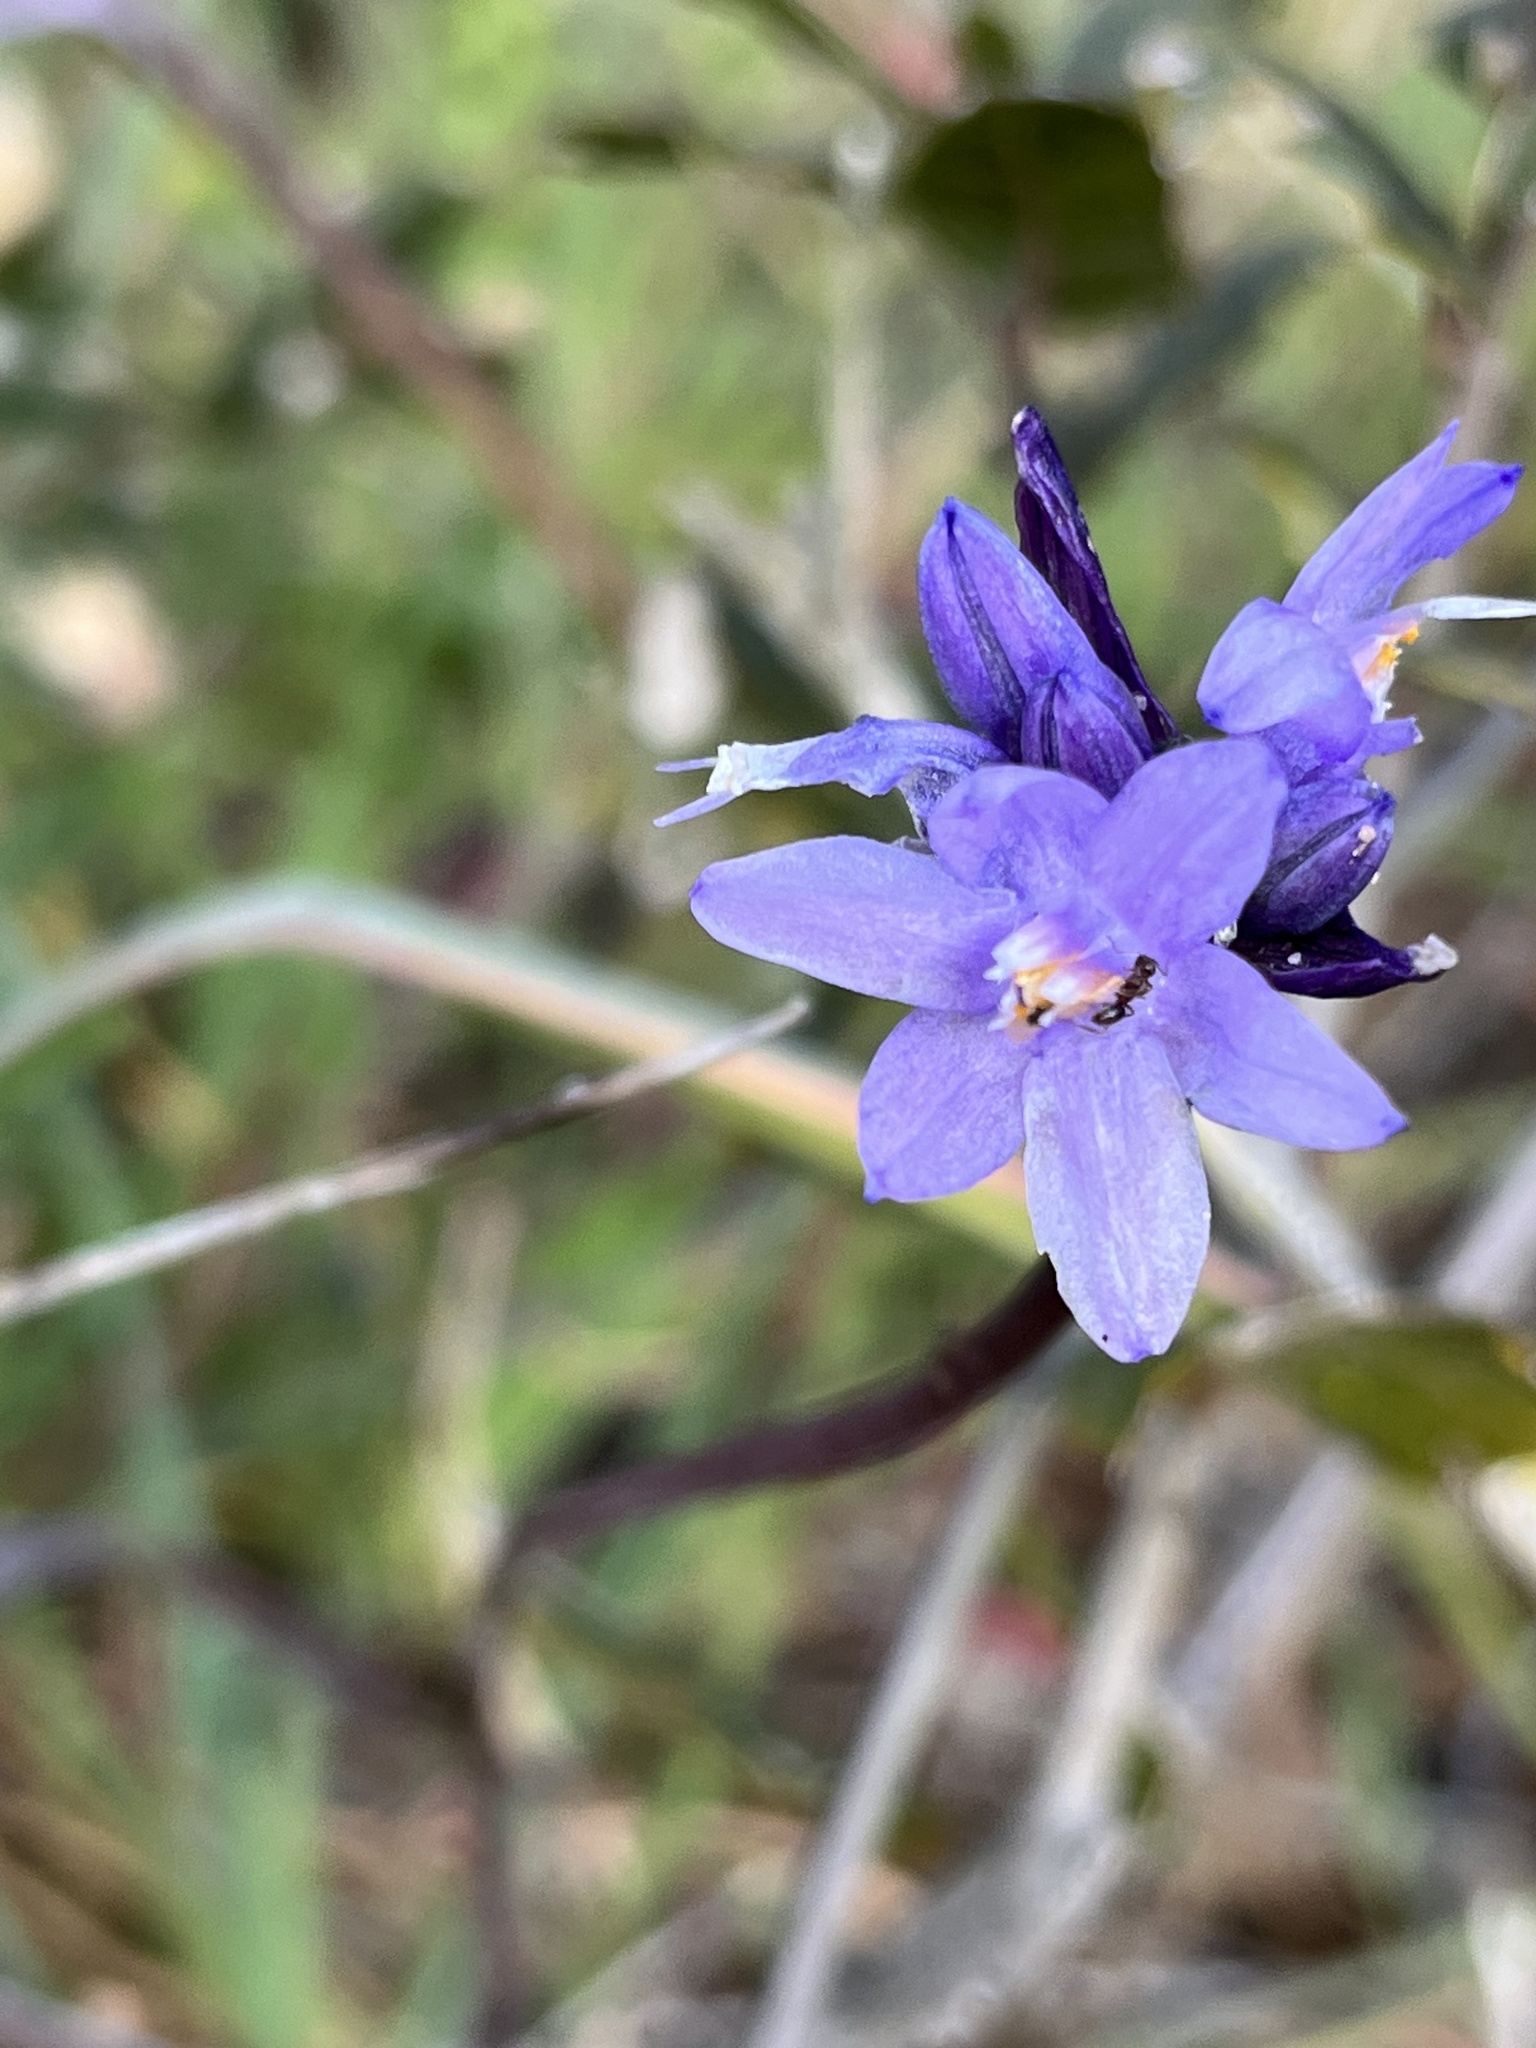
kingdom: Plantae
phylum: Tracheophyta
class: Liliopsida
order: Asparagales
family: Asparagaceae
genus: Dipterostemon
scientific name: Dipterostemon capitatus
